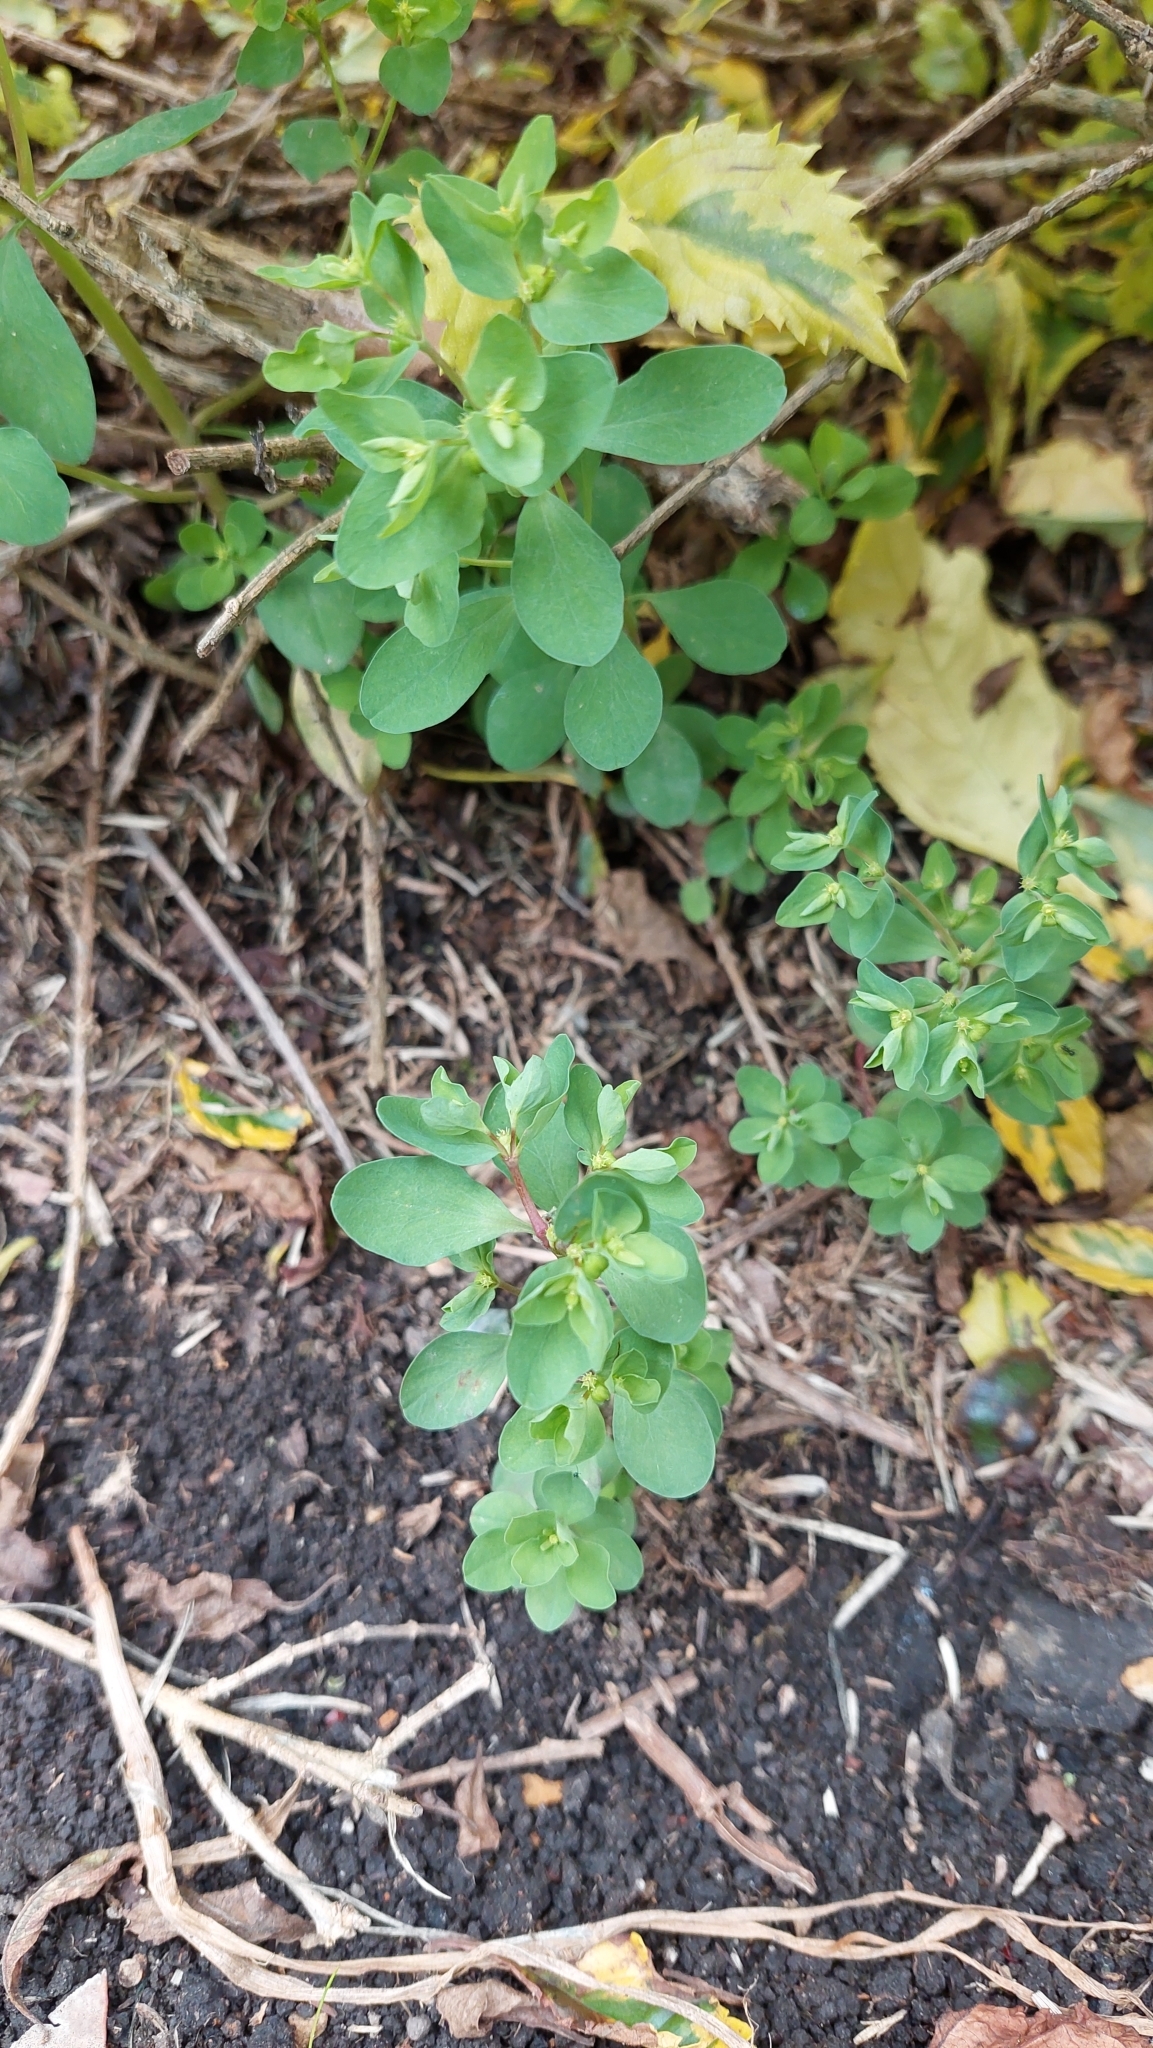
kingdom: Plantae
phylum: Tracheophyta
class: Magnoliopsida
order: Malpighiales
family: Euphorbiaceae
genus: Euphorbia
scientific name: Euphorbia peplus
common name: Petty spurge
